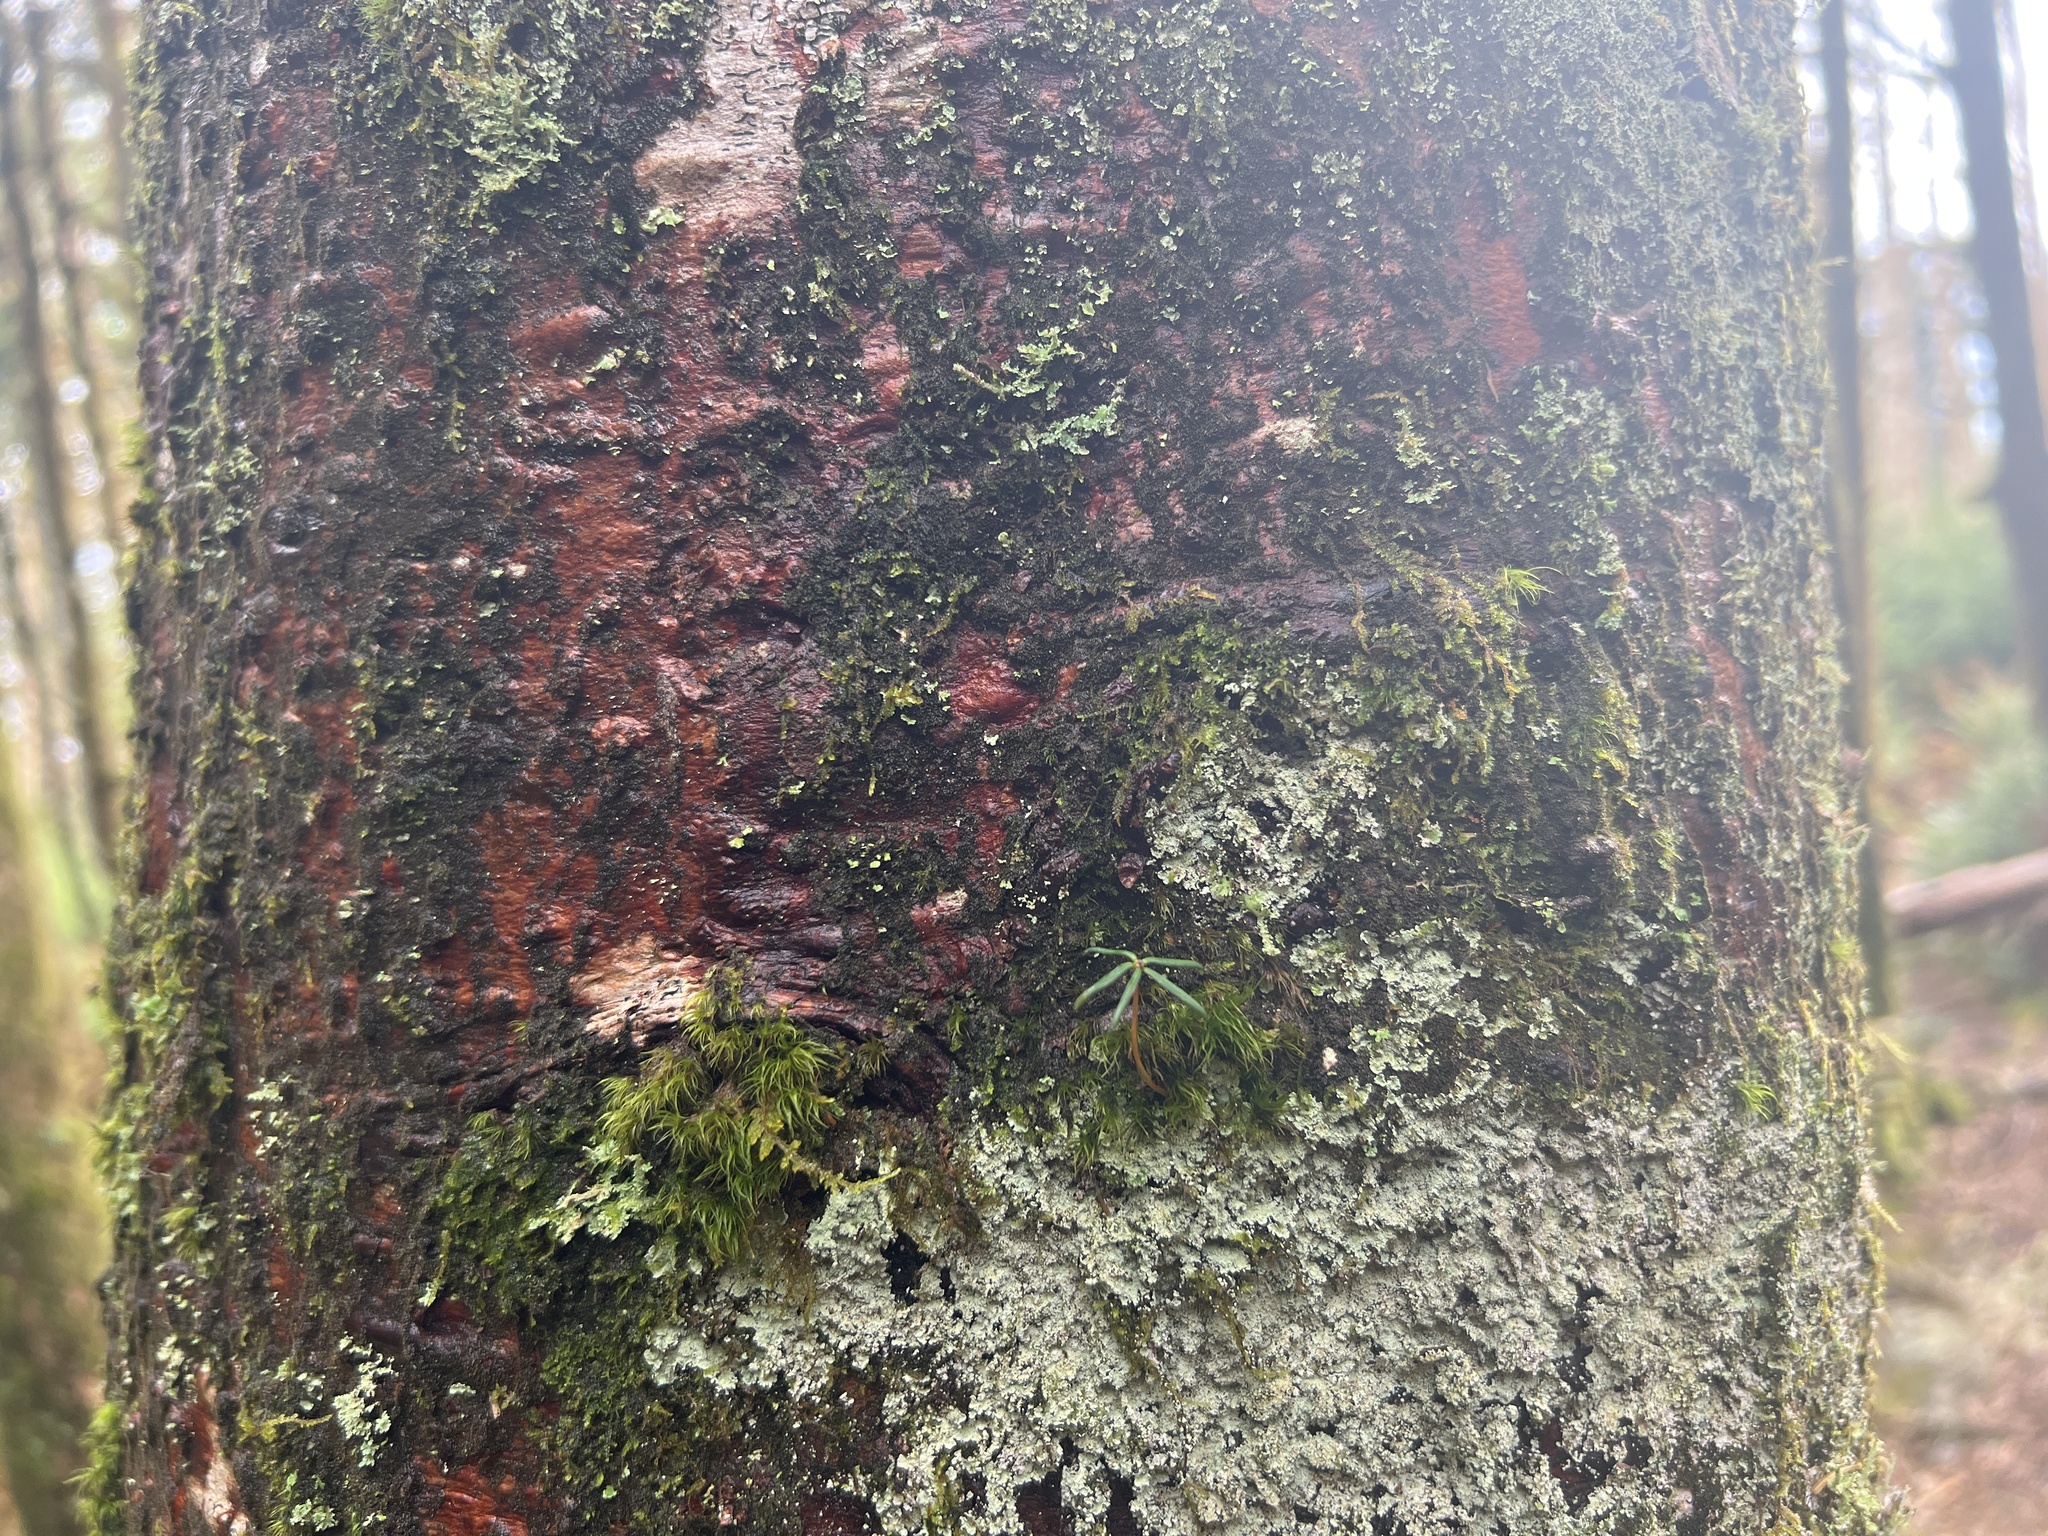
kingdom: Plantae
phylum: Tracheophyta
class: Pinopsida
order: Pinales
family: Pinaceae
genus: Abies
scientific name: Abies fraseri
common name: Fraser fir
